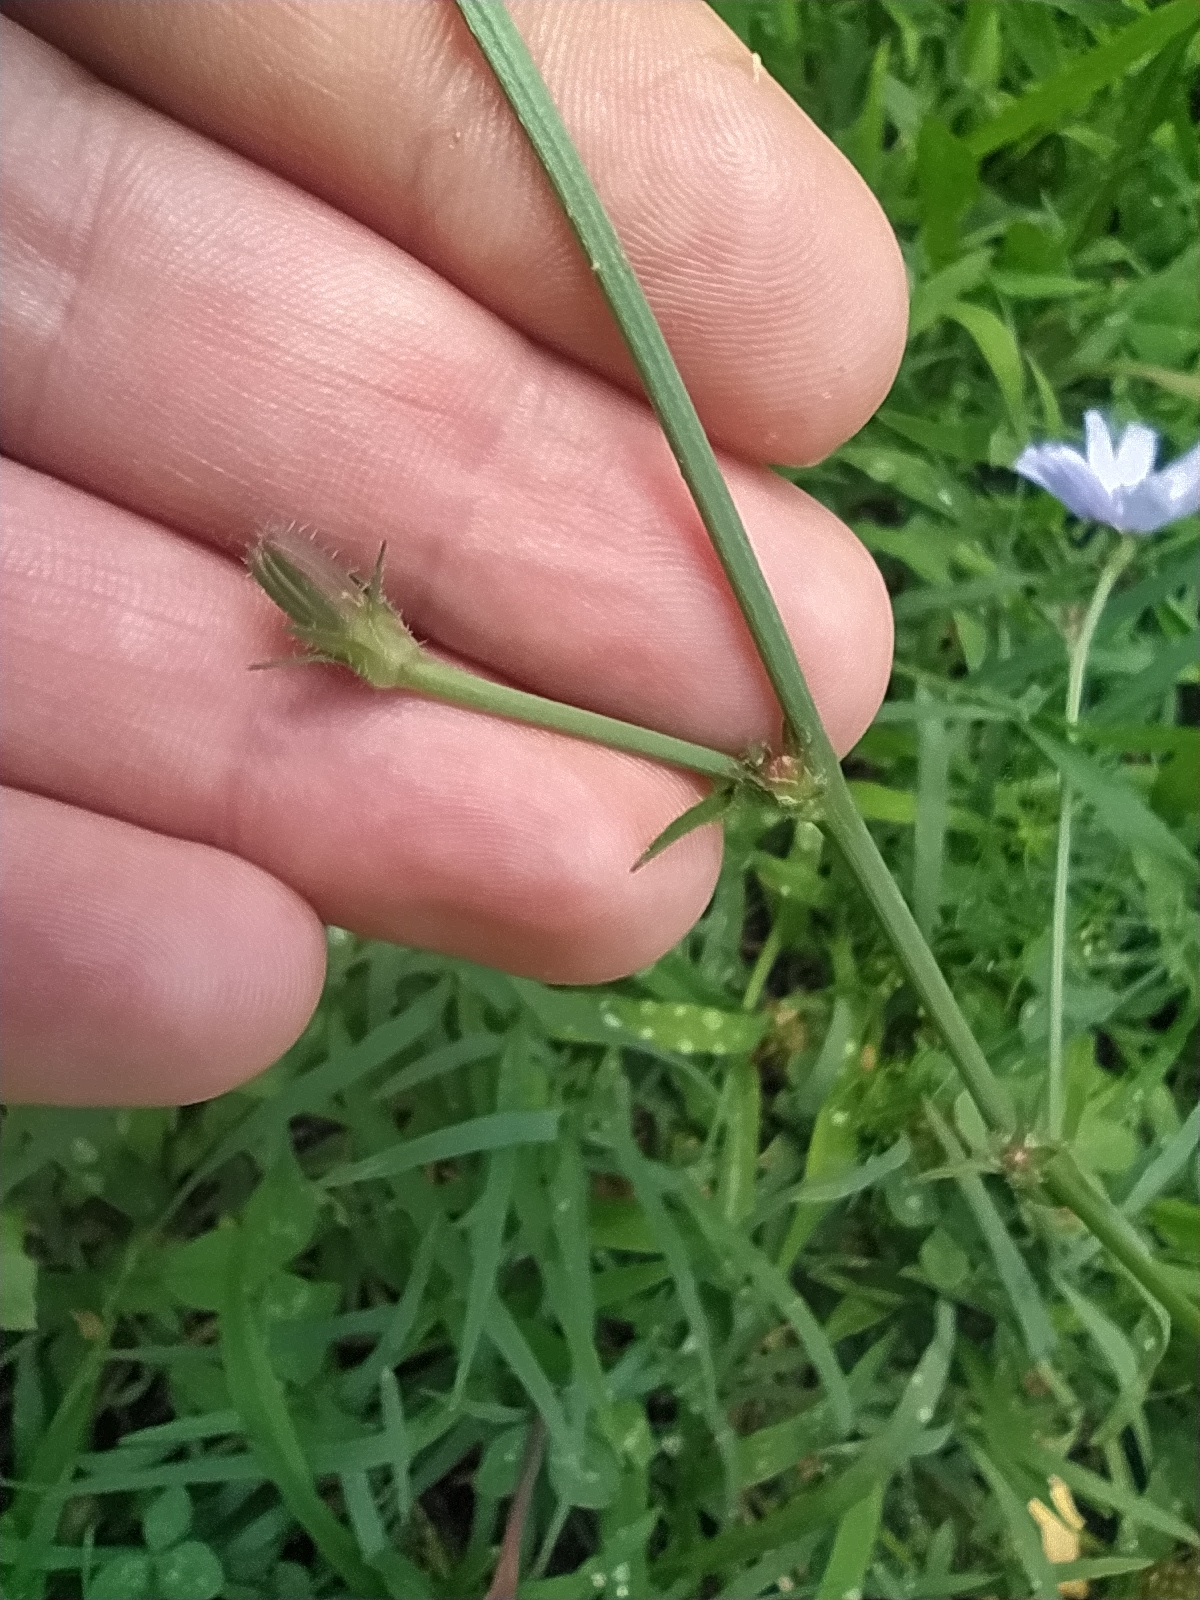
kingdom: Plantae
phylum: Tracheophyta
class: Magnoliopsida
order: Asterales
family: Asteraceae
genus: Cichorium
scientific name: Cichorium intybus
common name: Chicory
